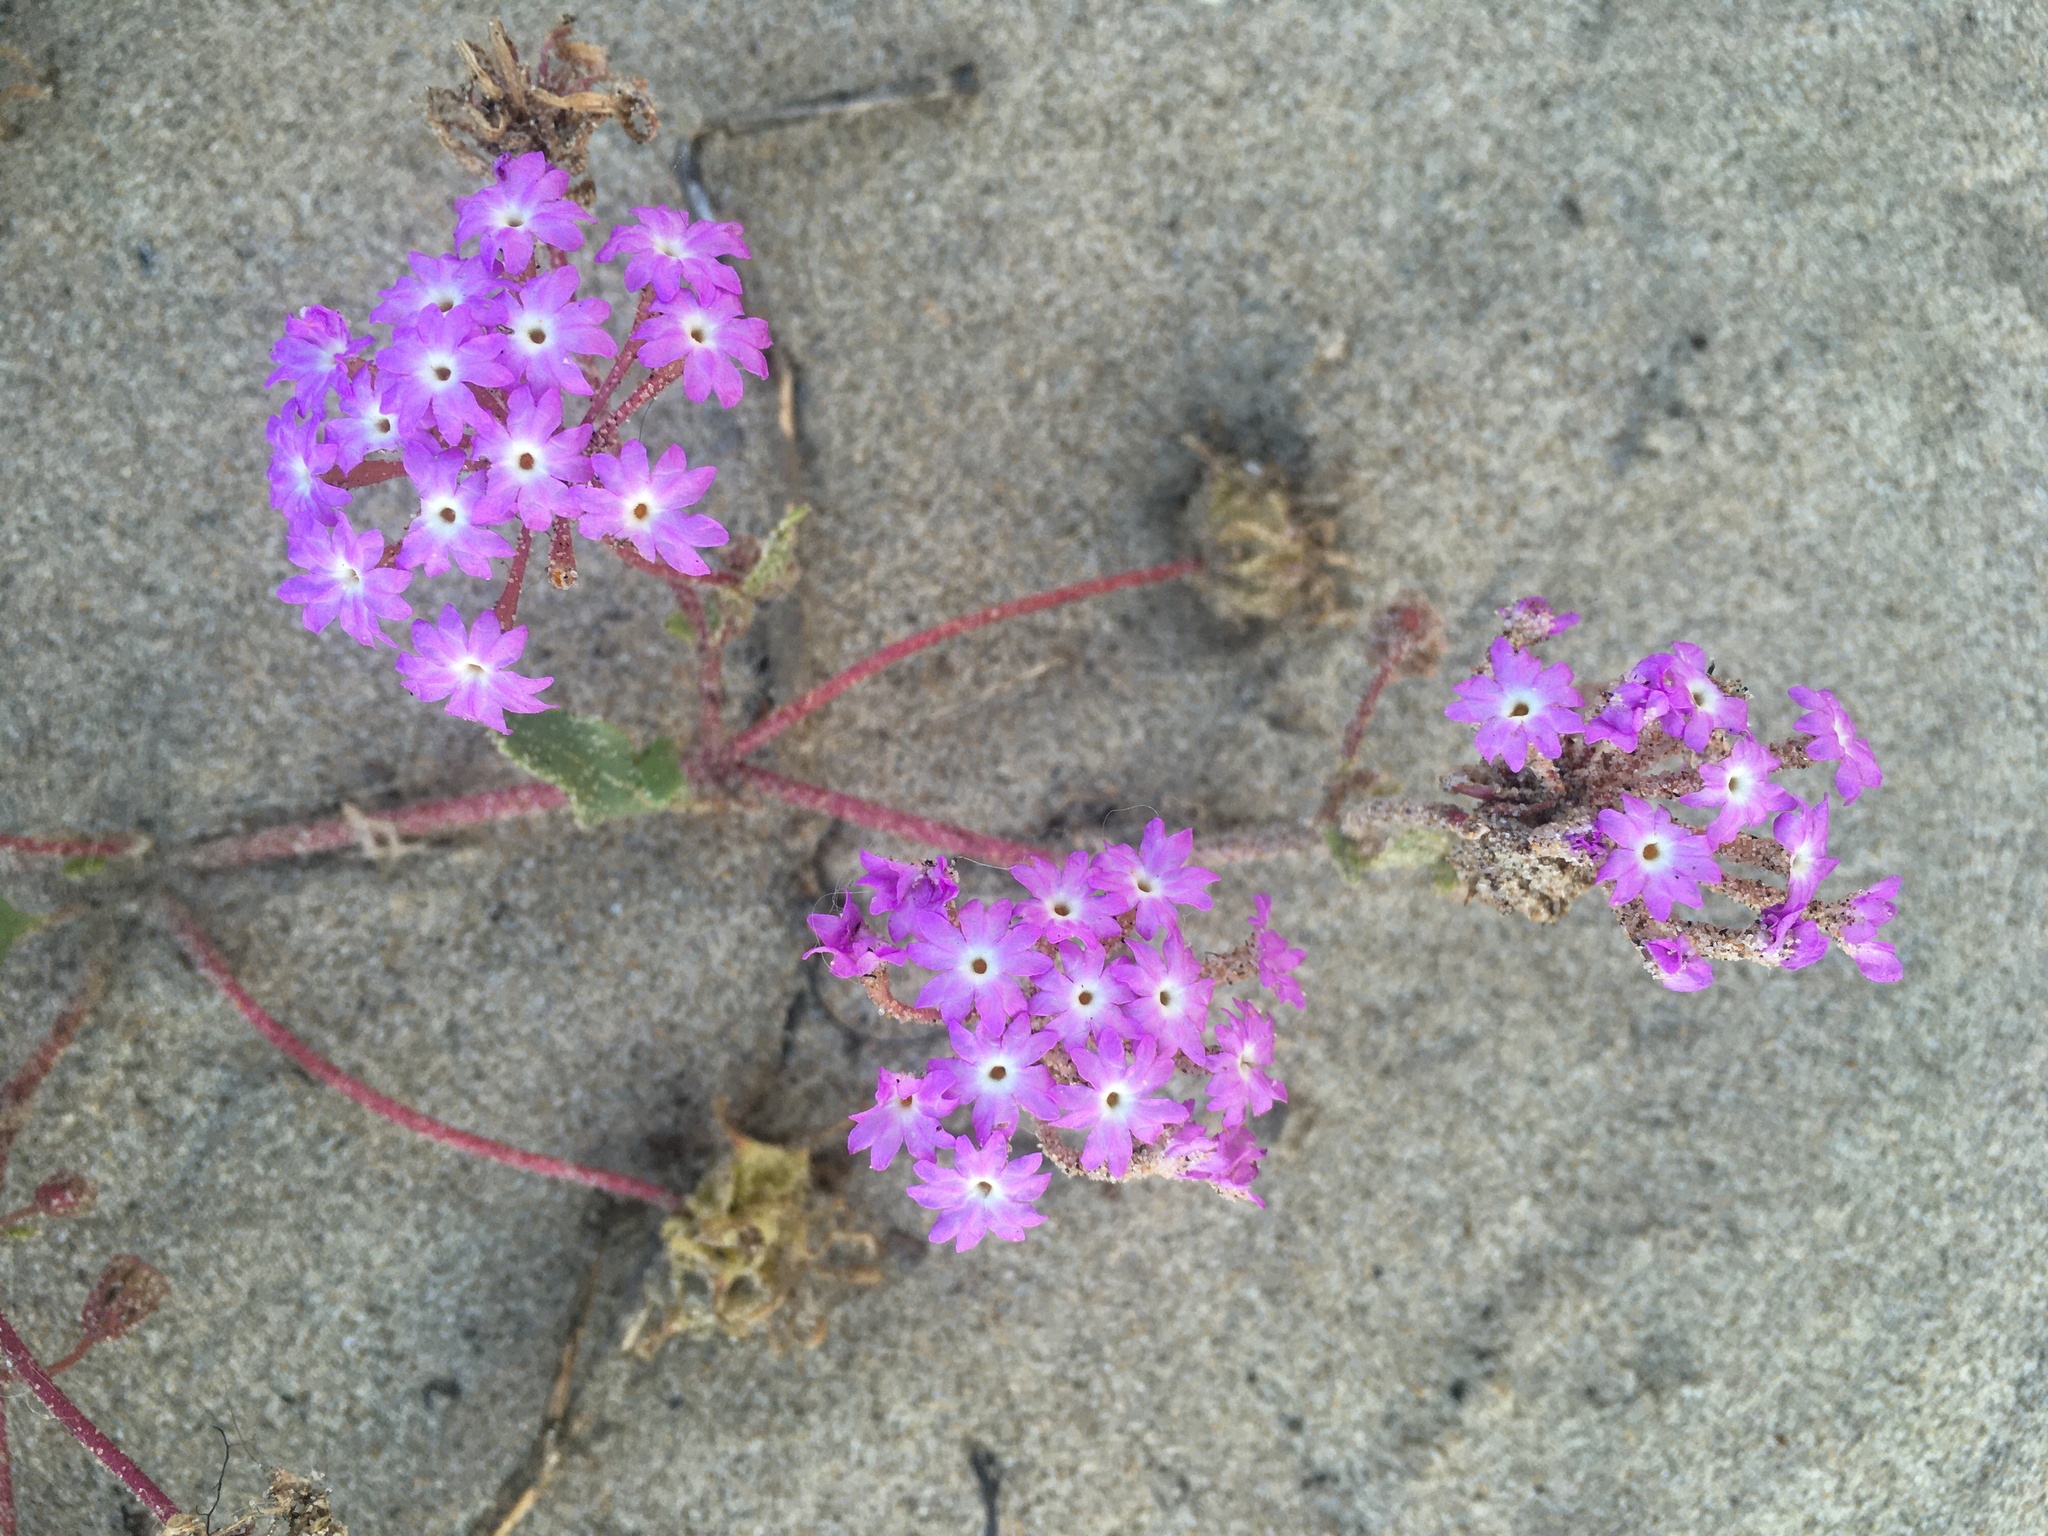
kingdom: Plantae
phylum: Tracheophyta
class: Magnoliopsida
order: Caryophyllales
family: Nyctaginaceae
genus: Abronia
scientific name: Abronia umbellata
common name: Sand-verbena
